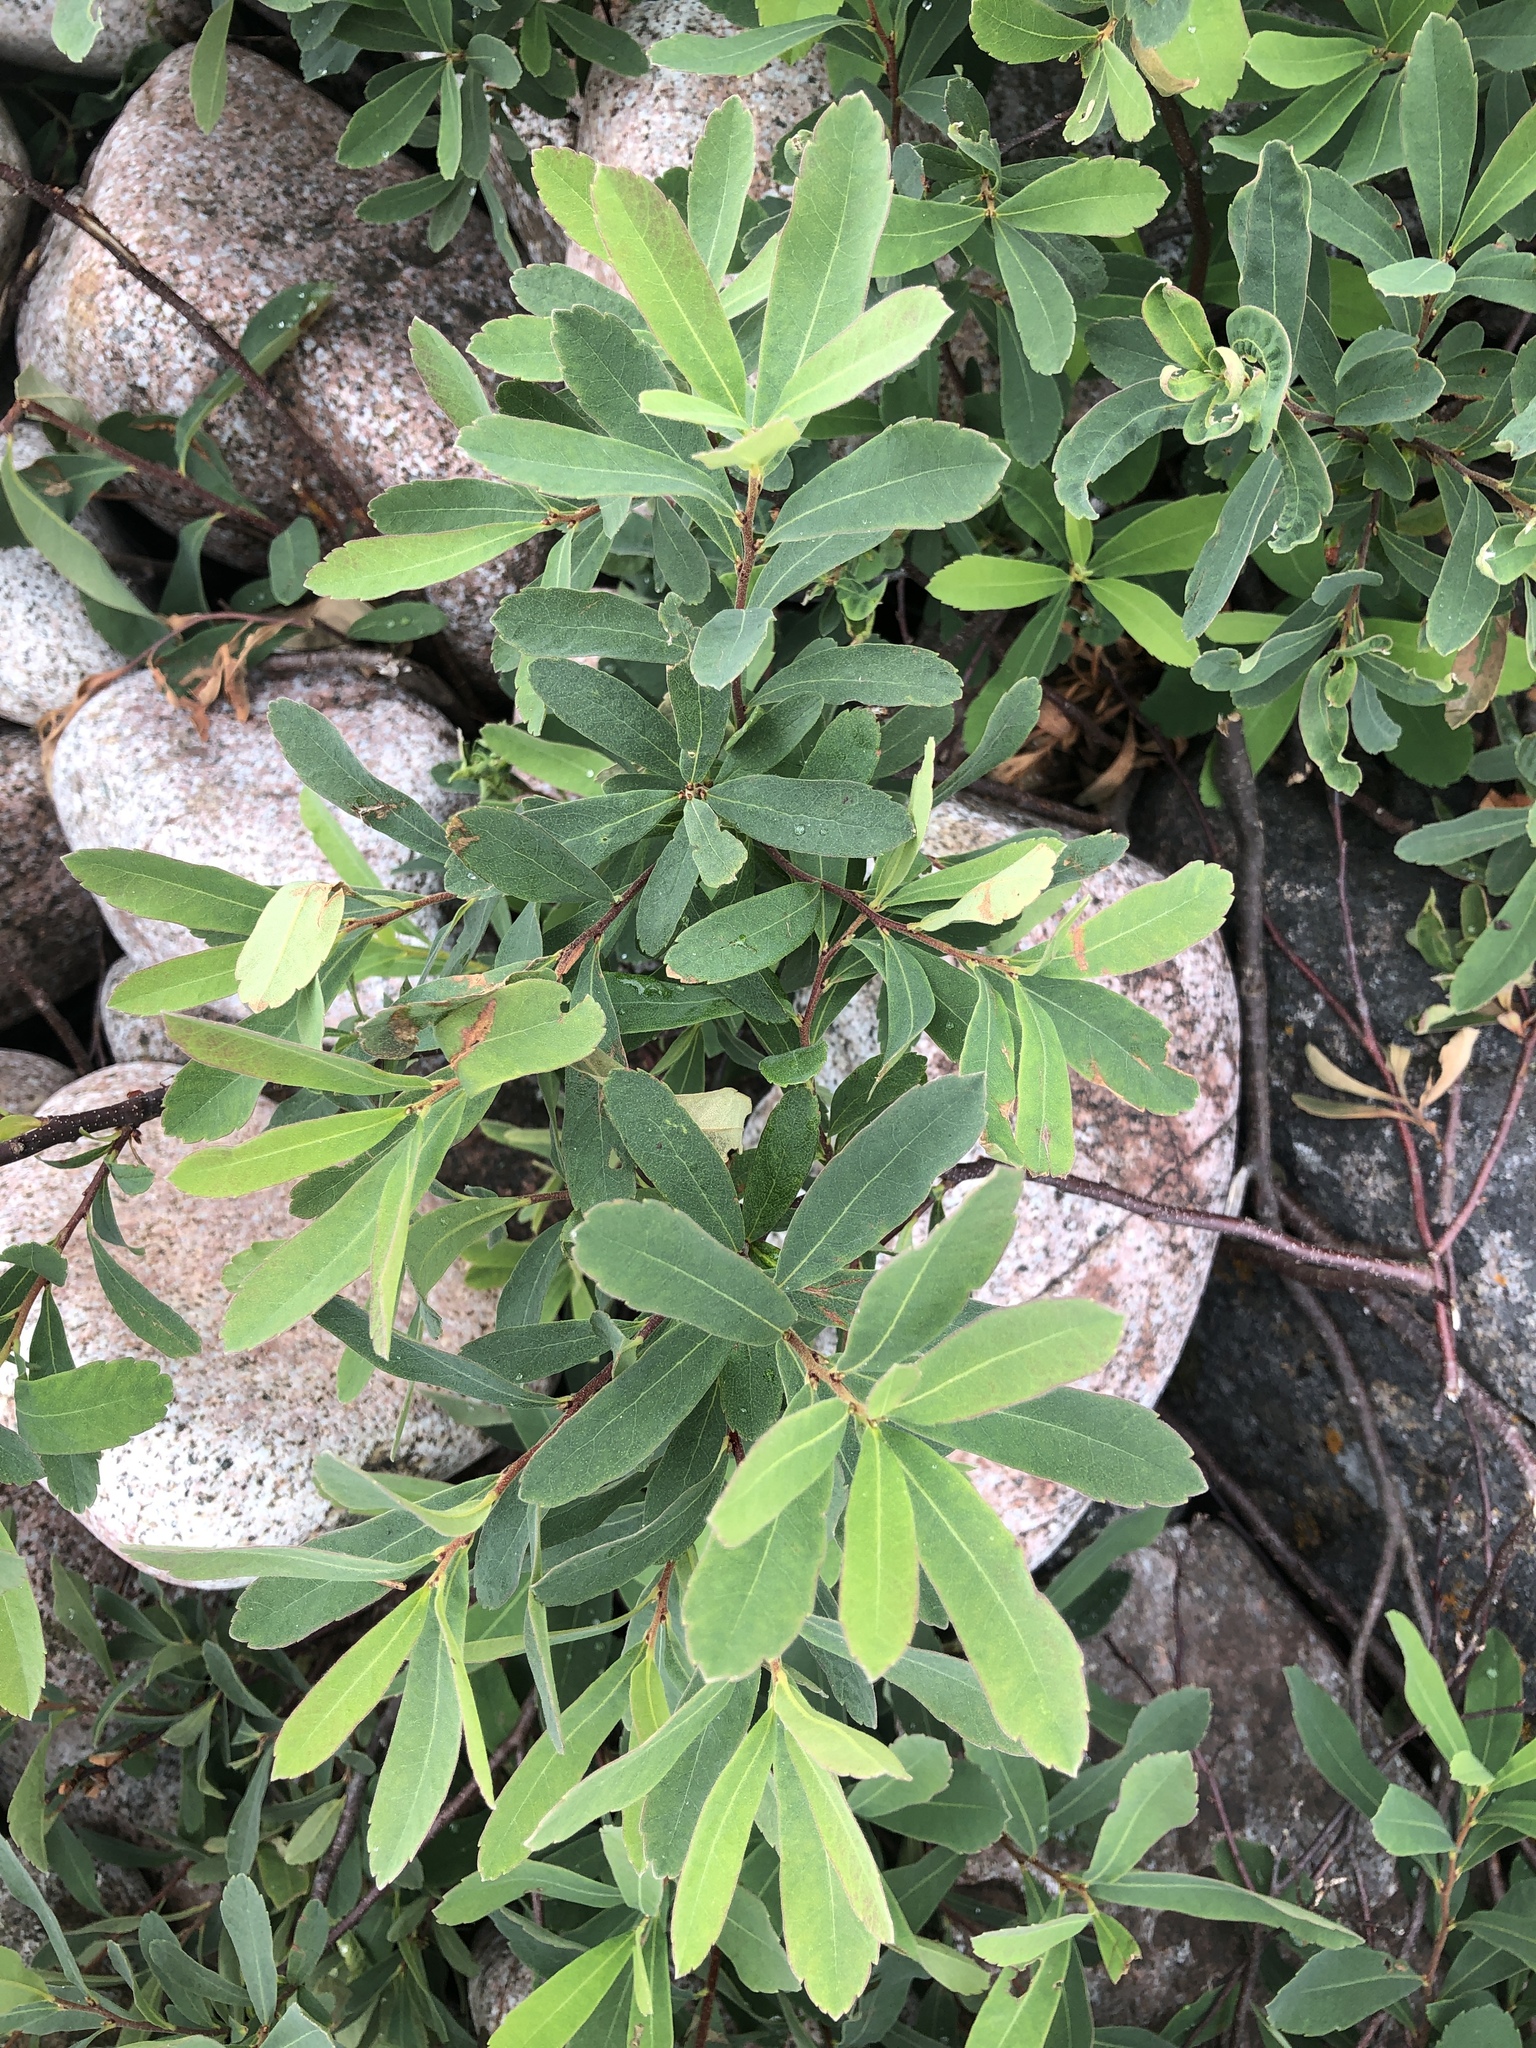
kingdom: Plantae
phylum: Tracheophyta
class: Magnoliopsida
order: Fagales
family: Myricaceae
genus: Myrica
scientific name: Myrica gale
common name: Sweet gale
